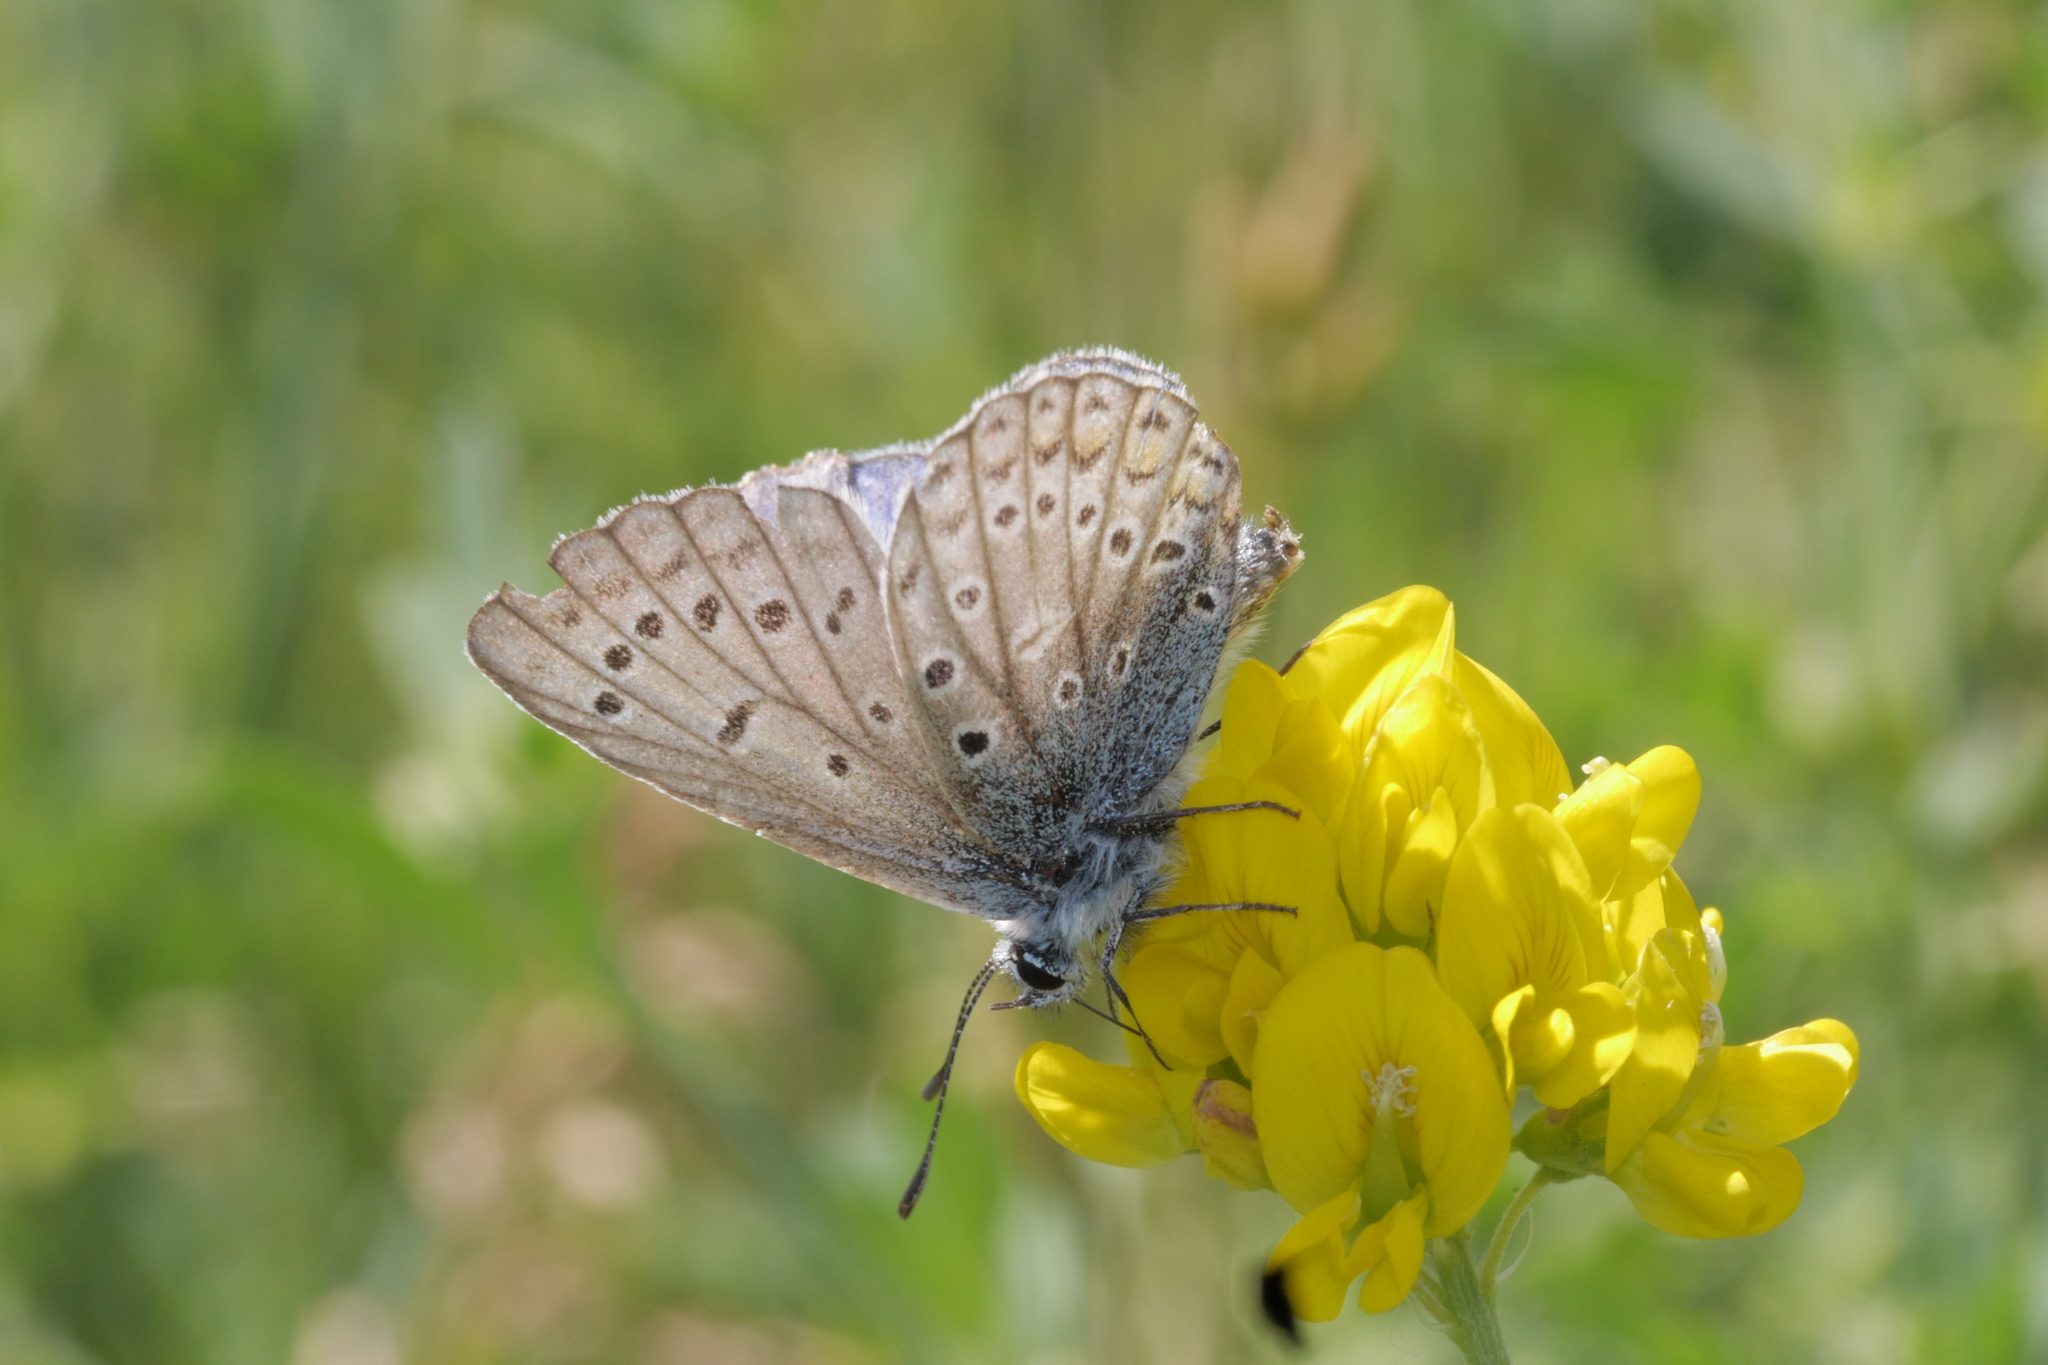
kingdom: Animalia
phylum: Arthropoda
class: Insecta
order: Lepidoptera
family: Lycaenidae
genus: Polyommatus
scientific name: Polyommatus icarus
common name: Common blue
